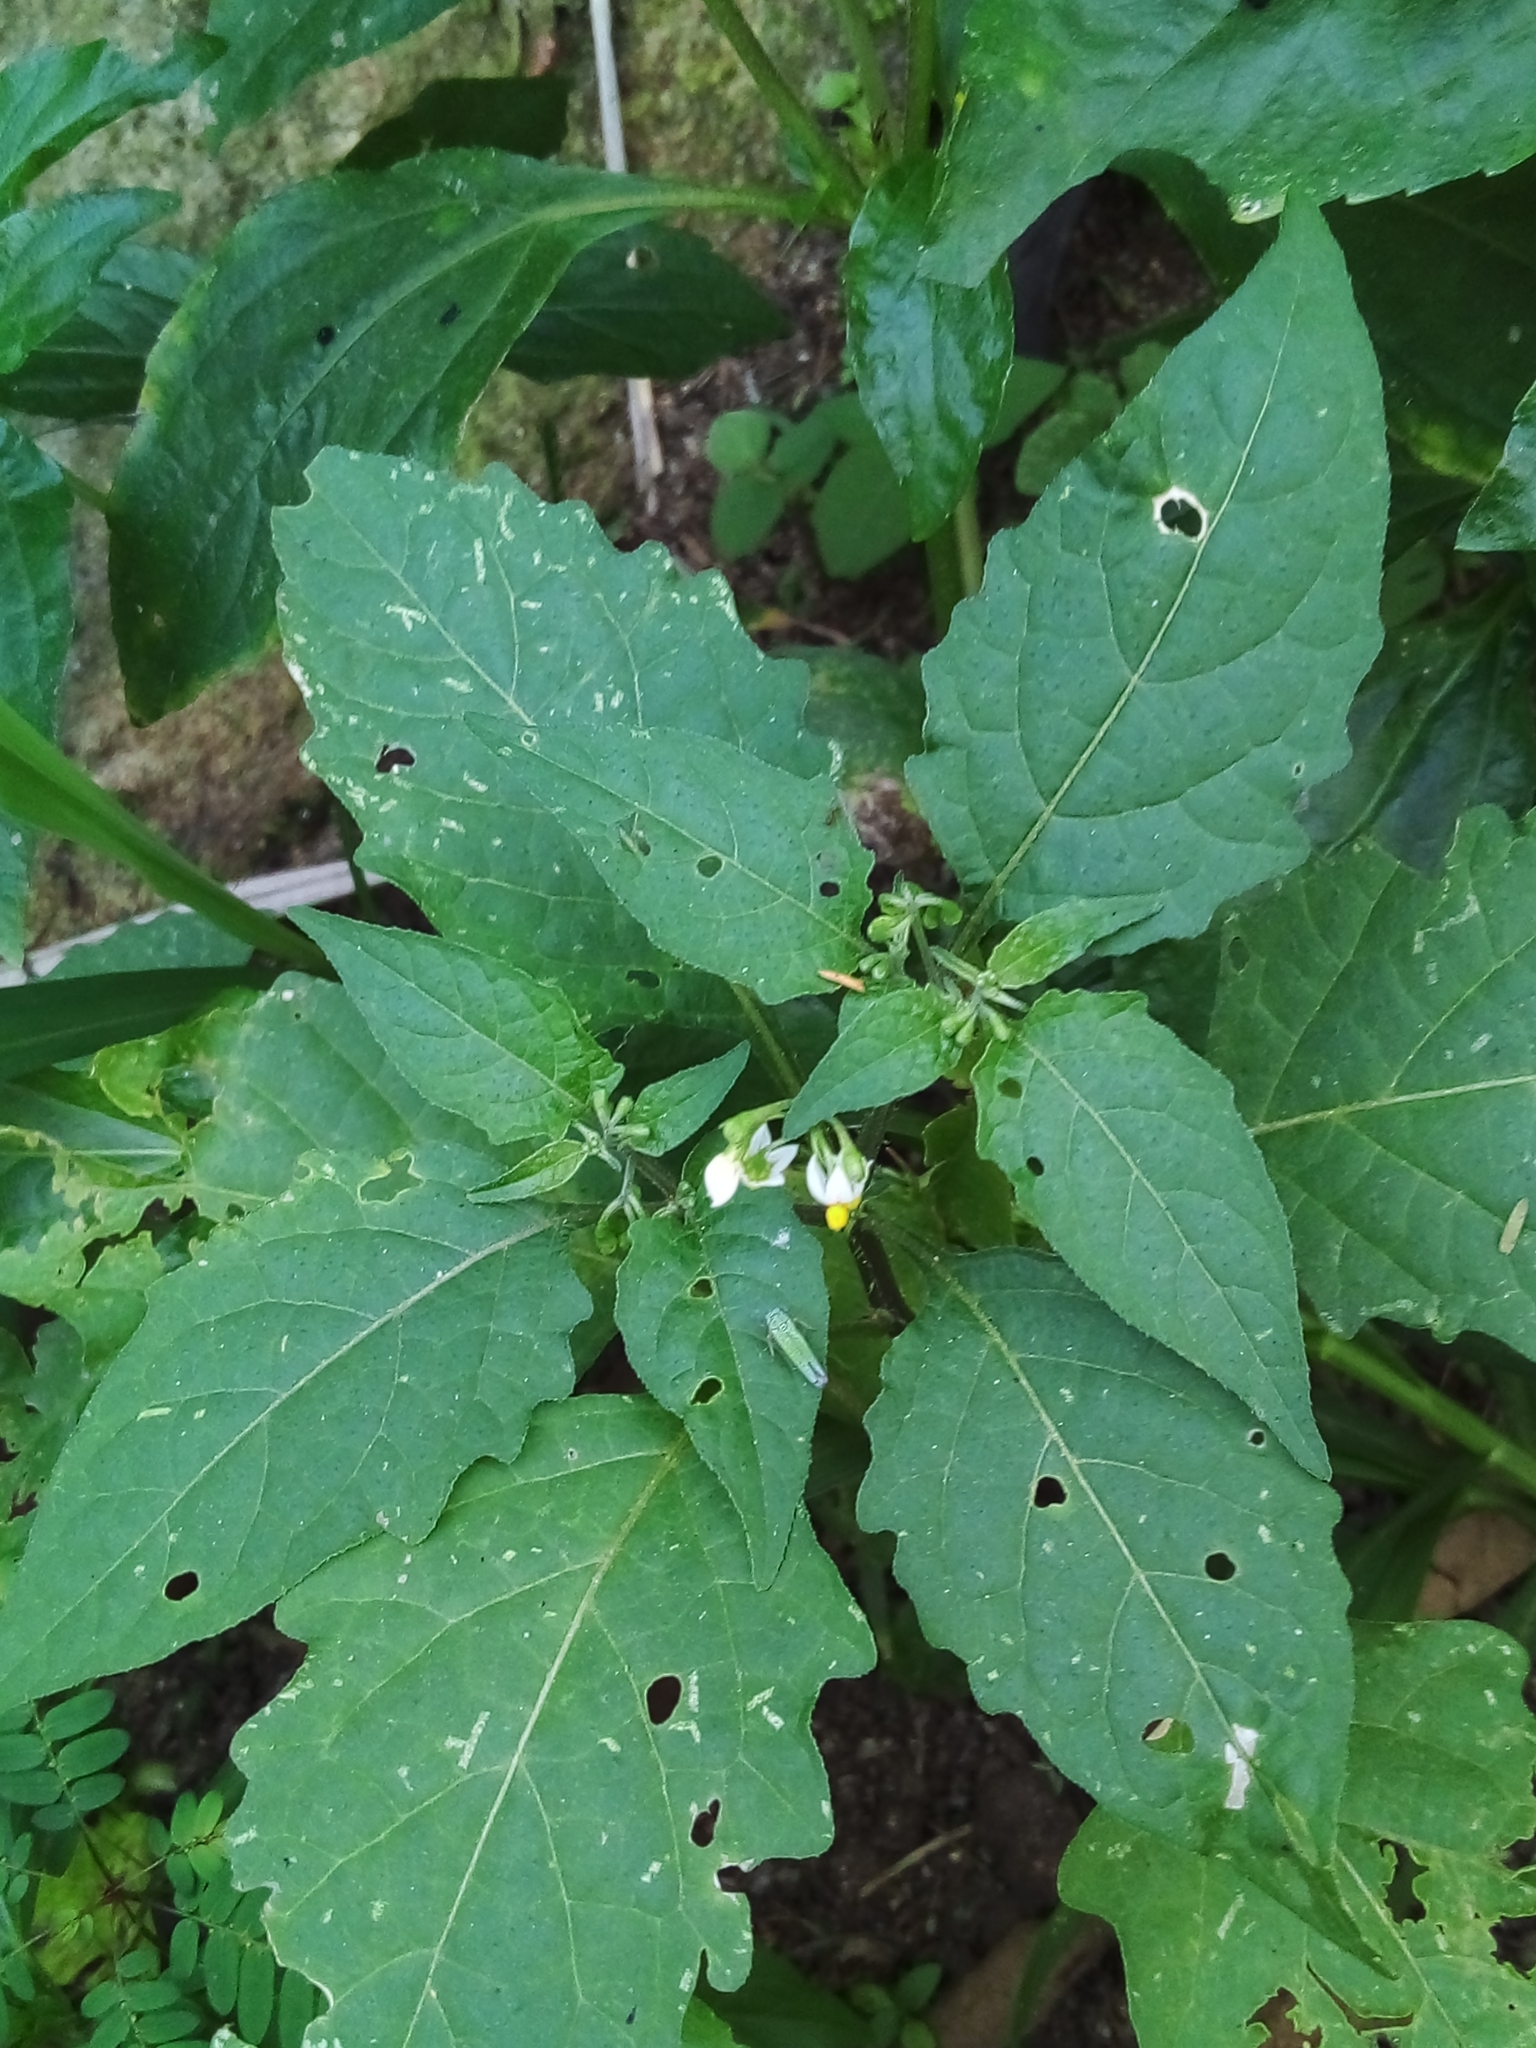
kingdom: Plantae
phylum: Tracheophyta
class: Magnoliopsida
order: Solanales
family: Solanaceae
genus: Solanum
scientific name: Solanum americanum
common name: American black nightshade
